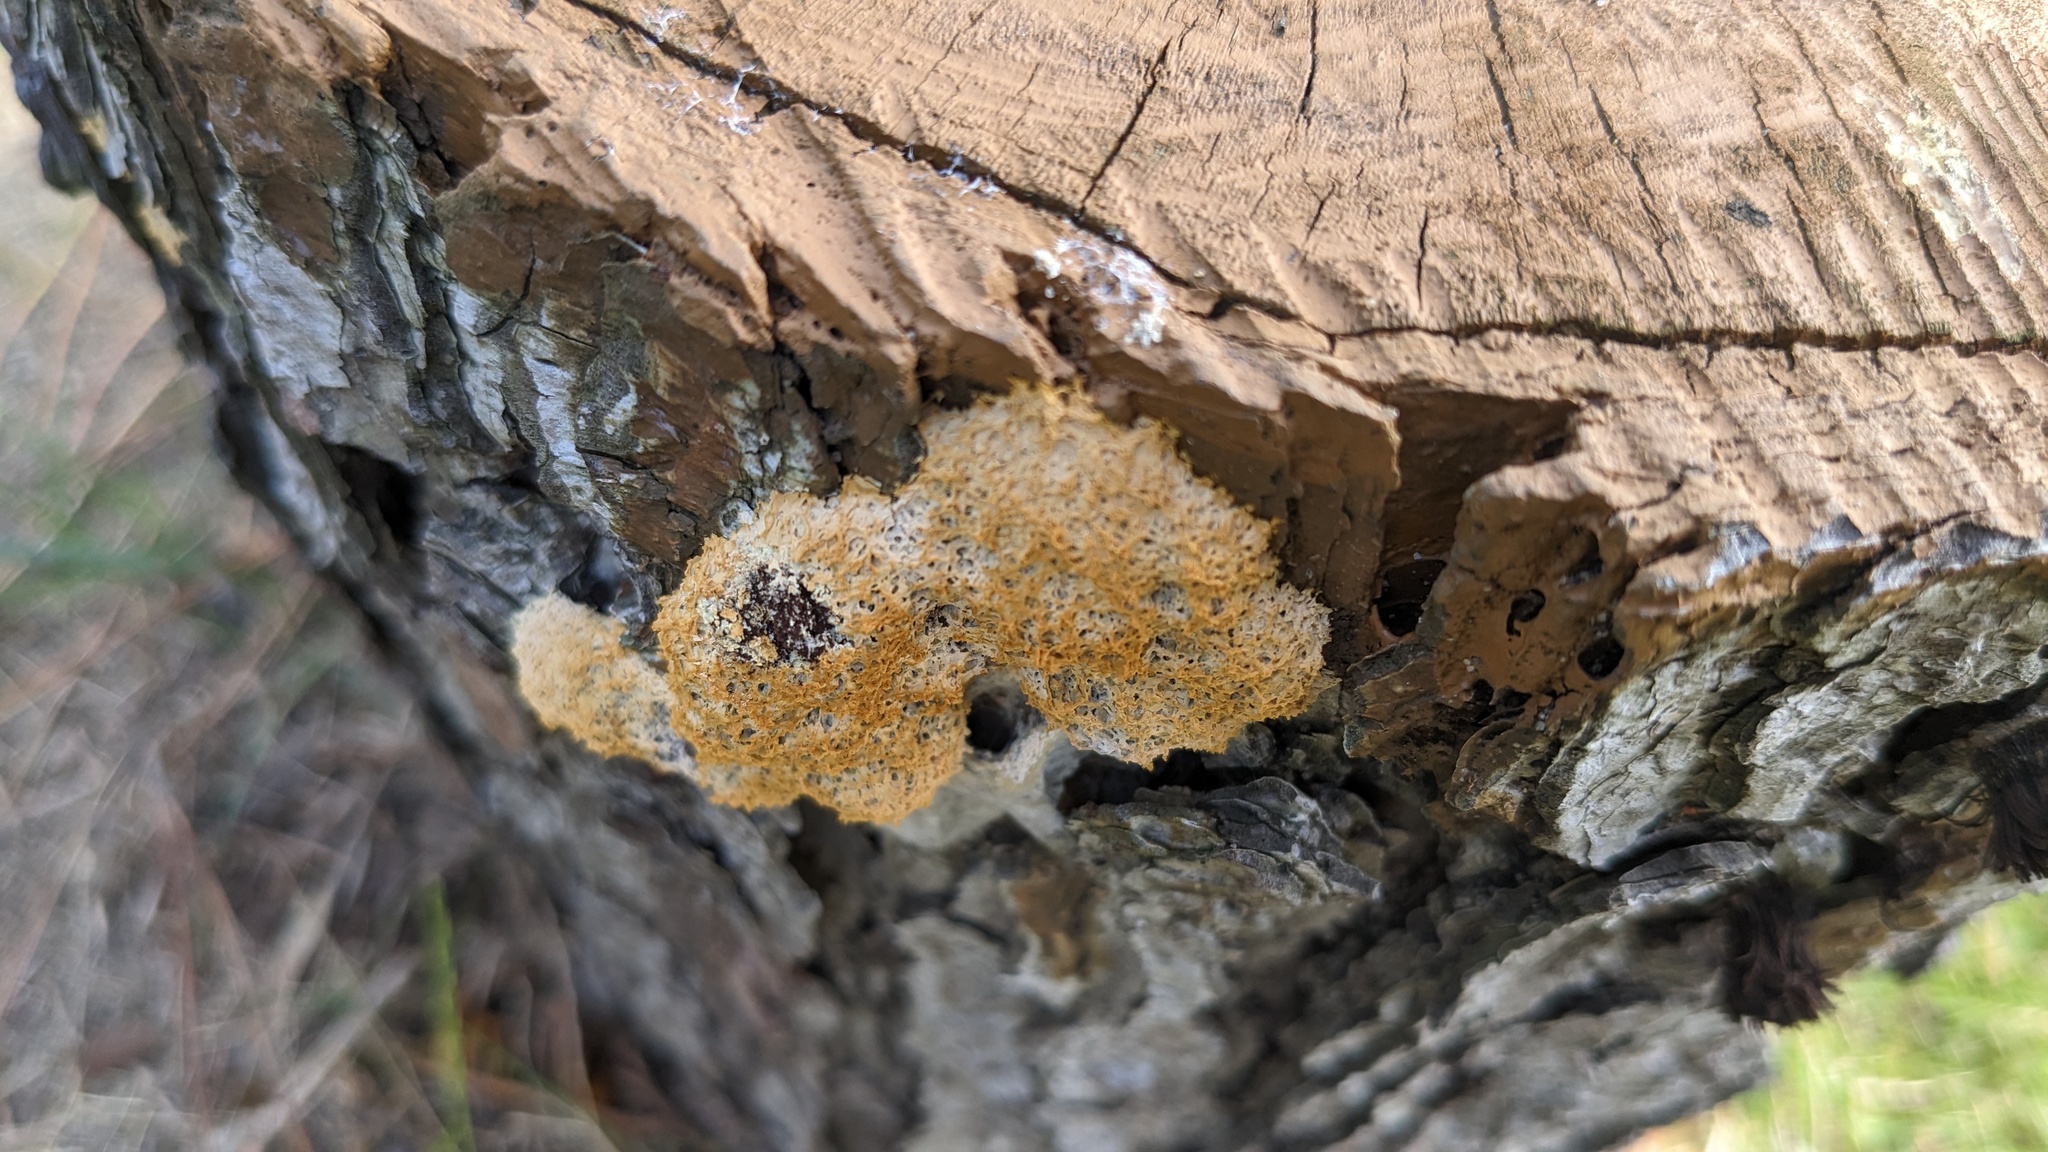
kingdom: Protozoa
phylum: Mycetozoa
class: Myxomycetes
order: Physarales
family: Physaraceae
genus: Fuligo
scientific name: Fuligo septica
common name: Dog vomit slime mold
